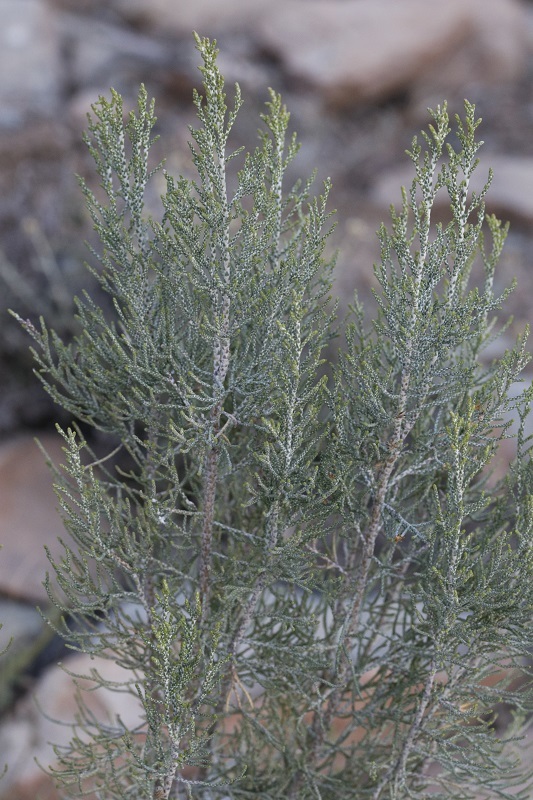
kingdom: Plantae
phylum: Tracheophyta
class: Magnoliopsida
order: Asterales
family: Asteraceae
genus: Dicerothamnus
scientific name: Dicerothamnus rhinocerotis
